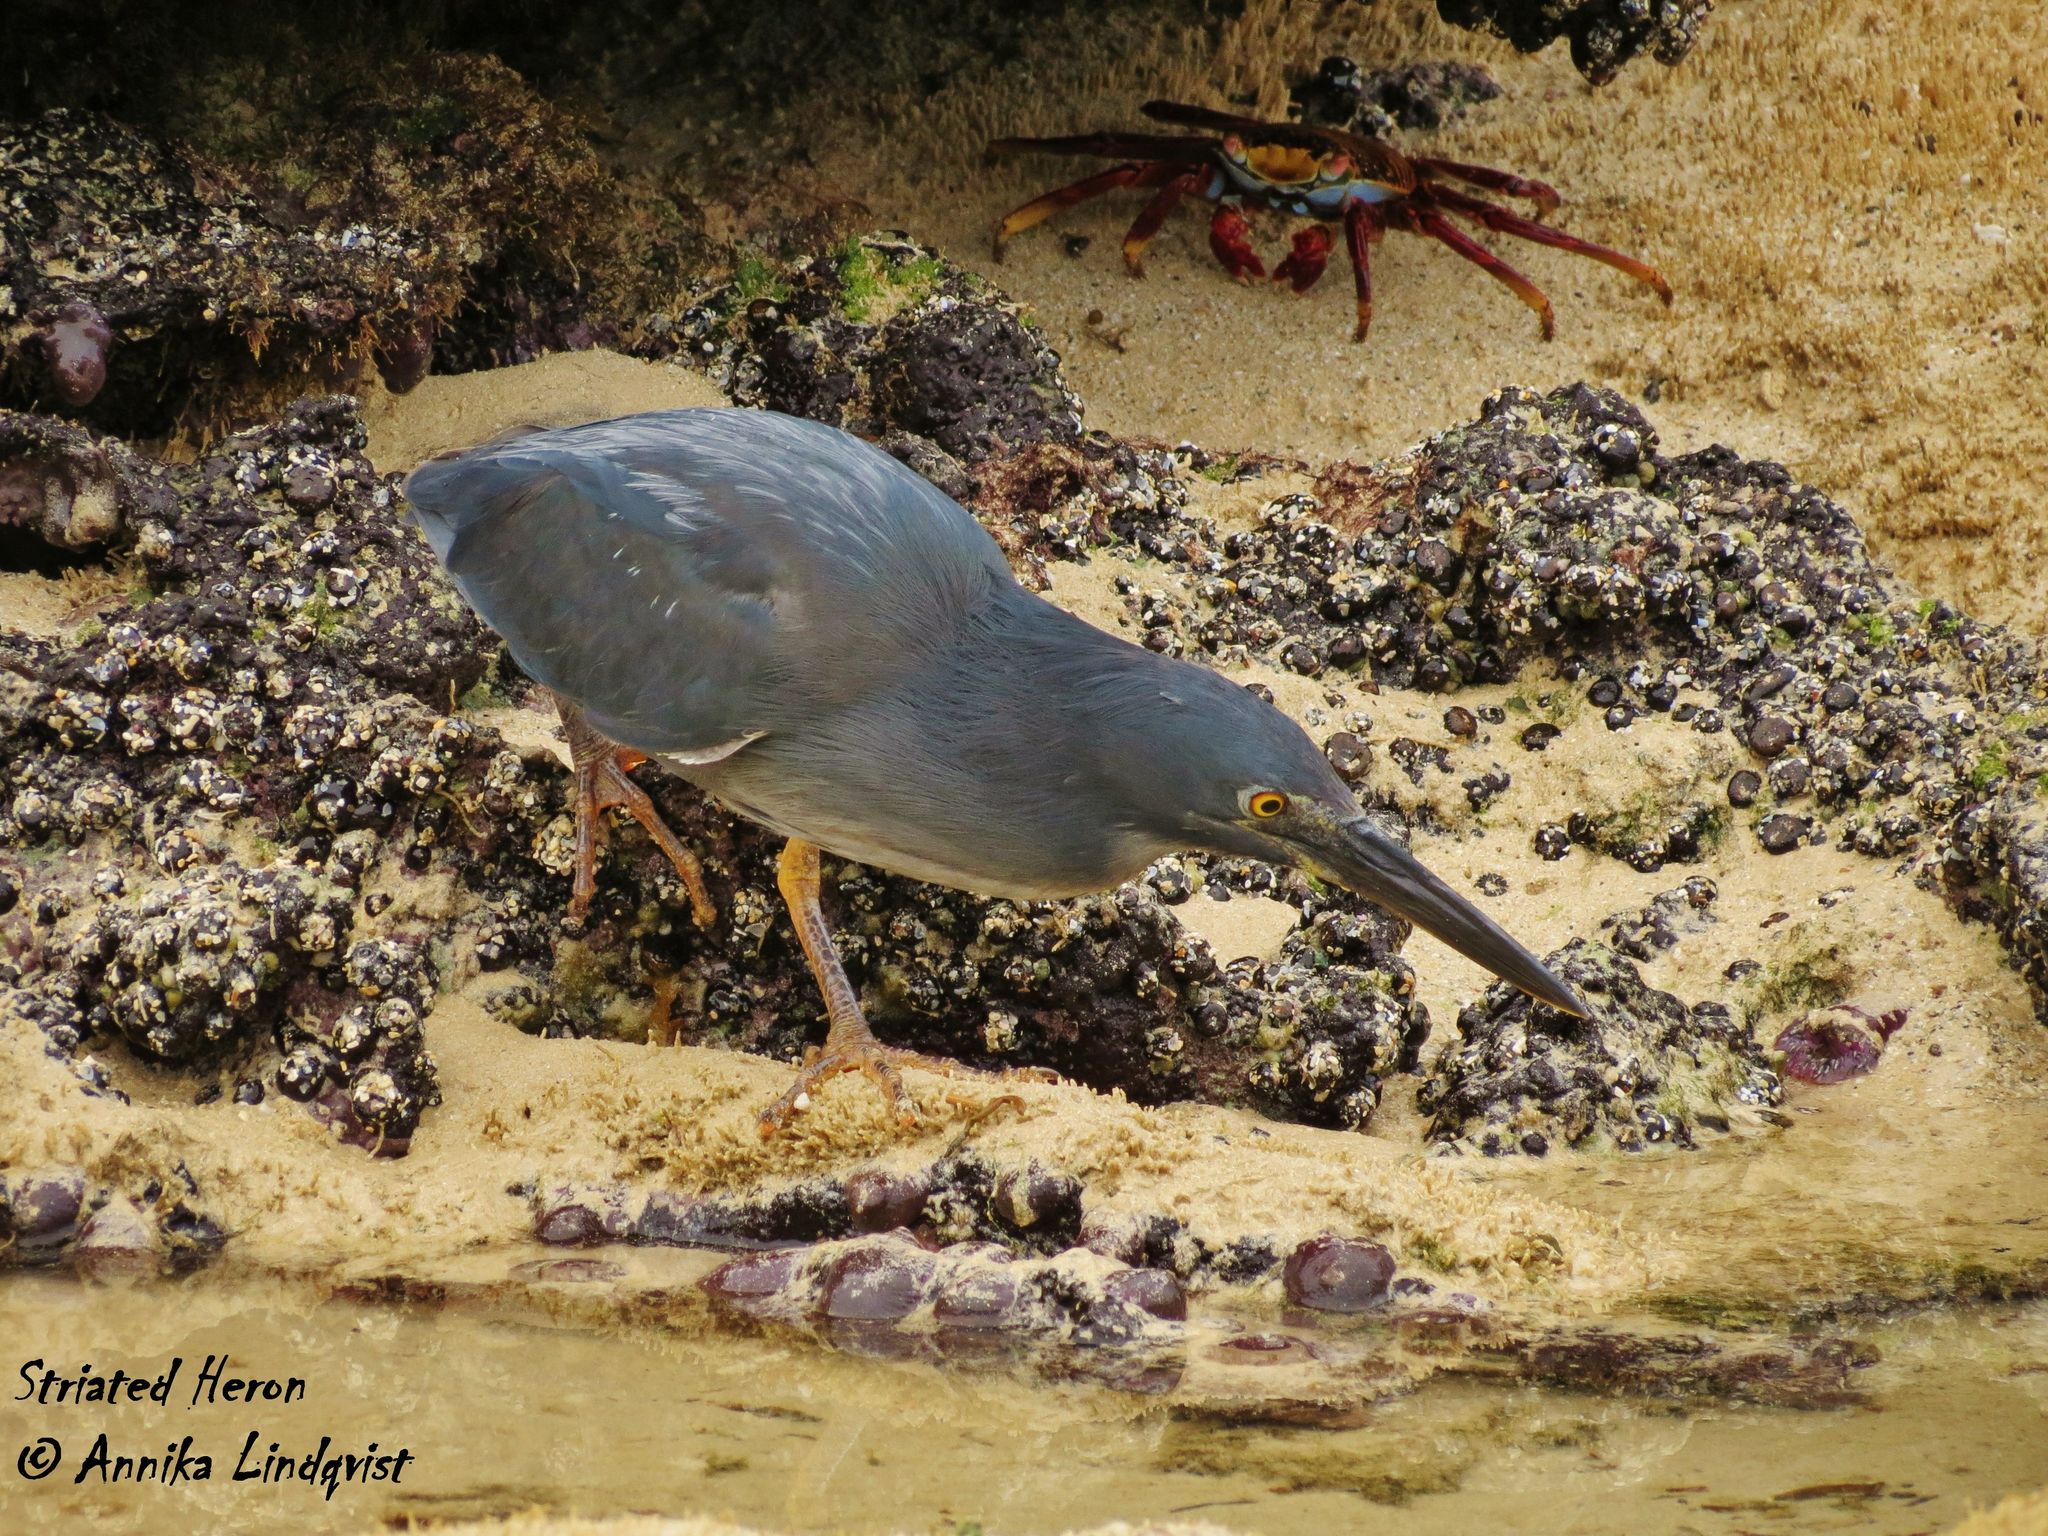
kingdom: Animalia
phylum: Chordata
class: Aves
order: Pelecaniformes
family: Ardeidae
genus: Butorides
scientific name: Butorides striata
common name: Striated heron
